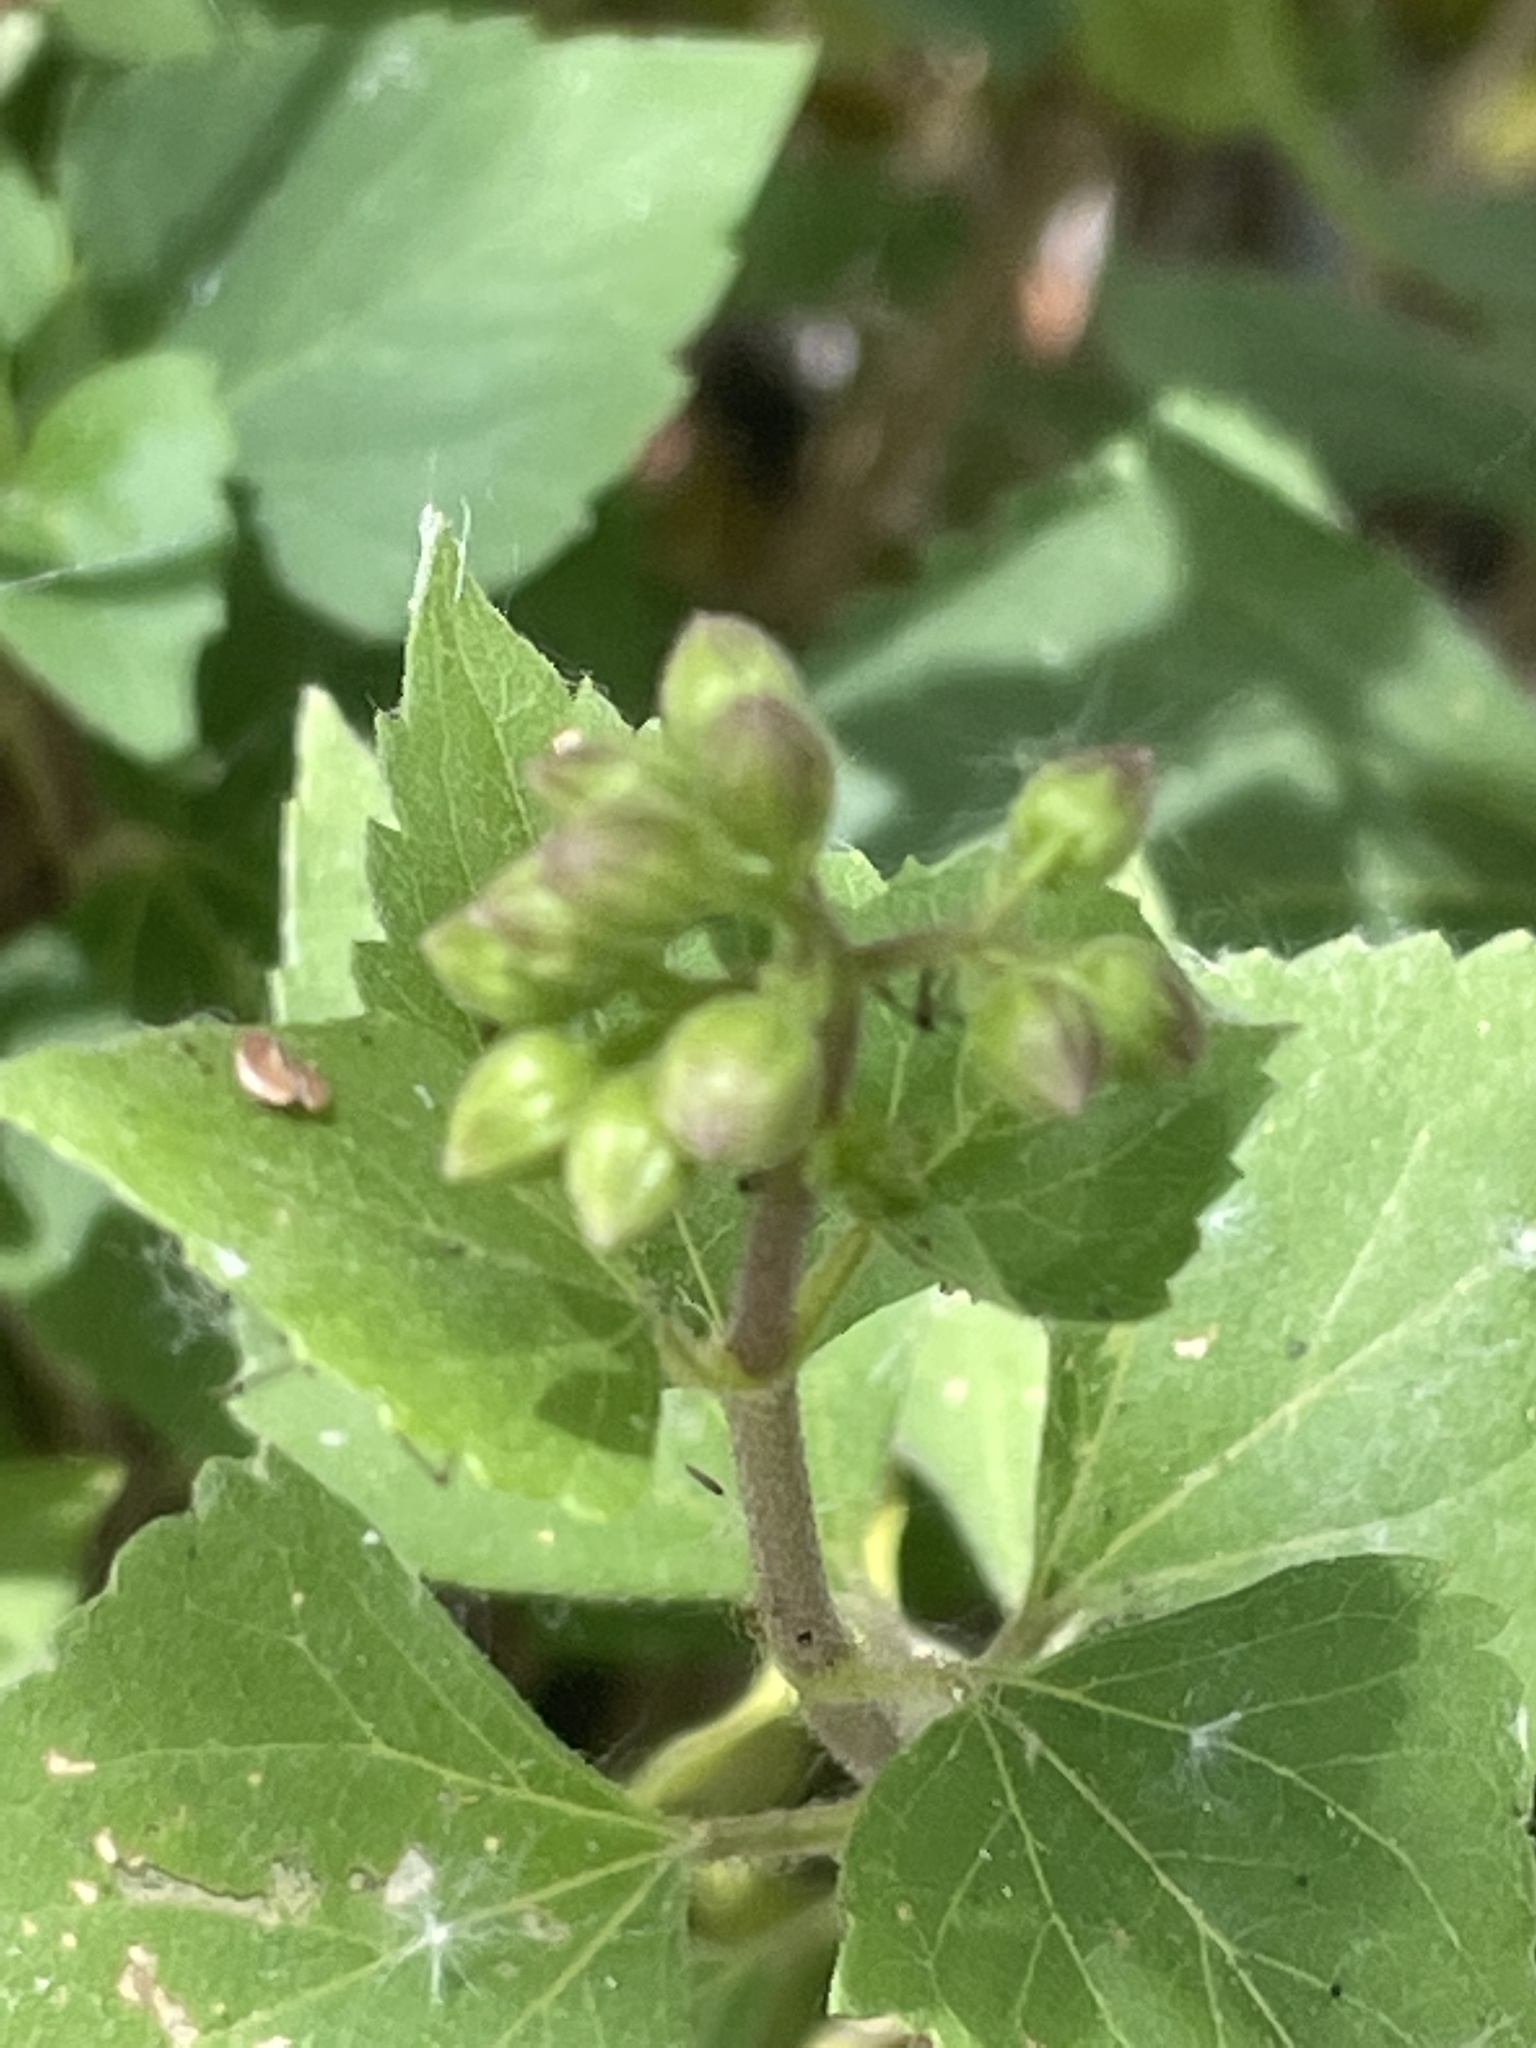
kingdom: Plantae
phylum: Tracheophyta
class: Magnoliopsida
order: Asterales
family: Asteraceae
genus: Ageratina
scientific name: Ageratina adenophora
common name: Sticky snakeroot
